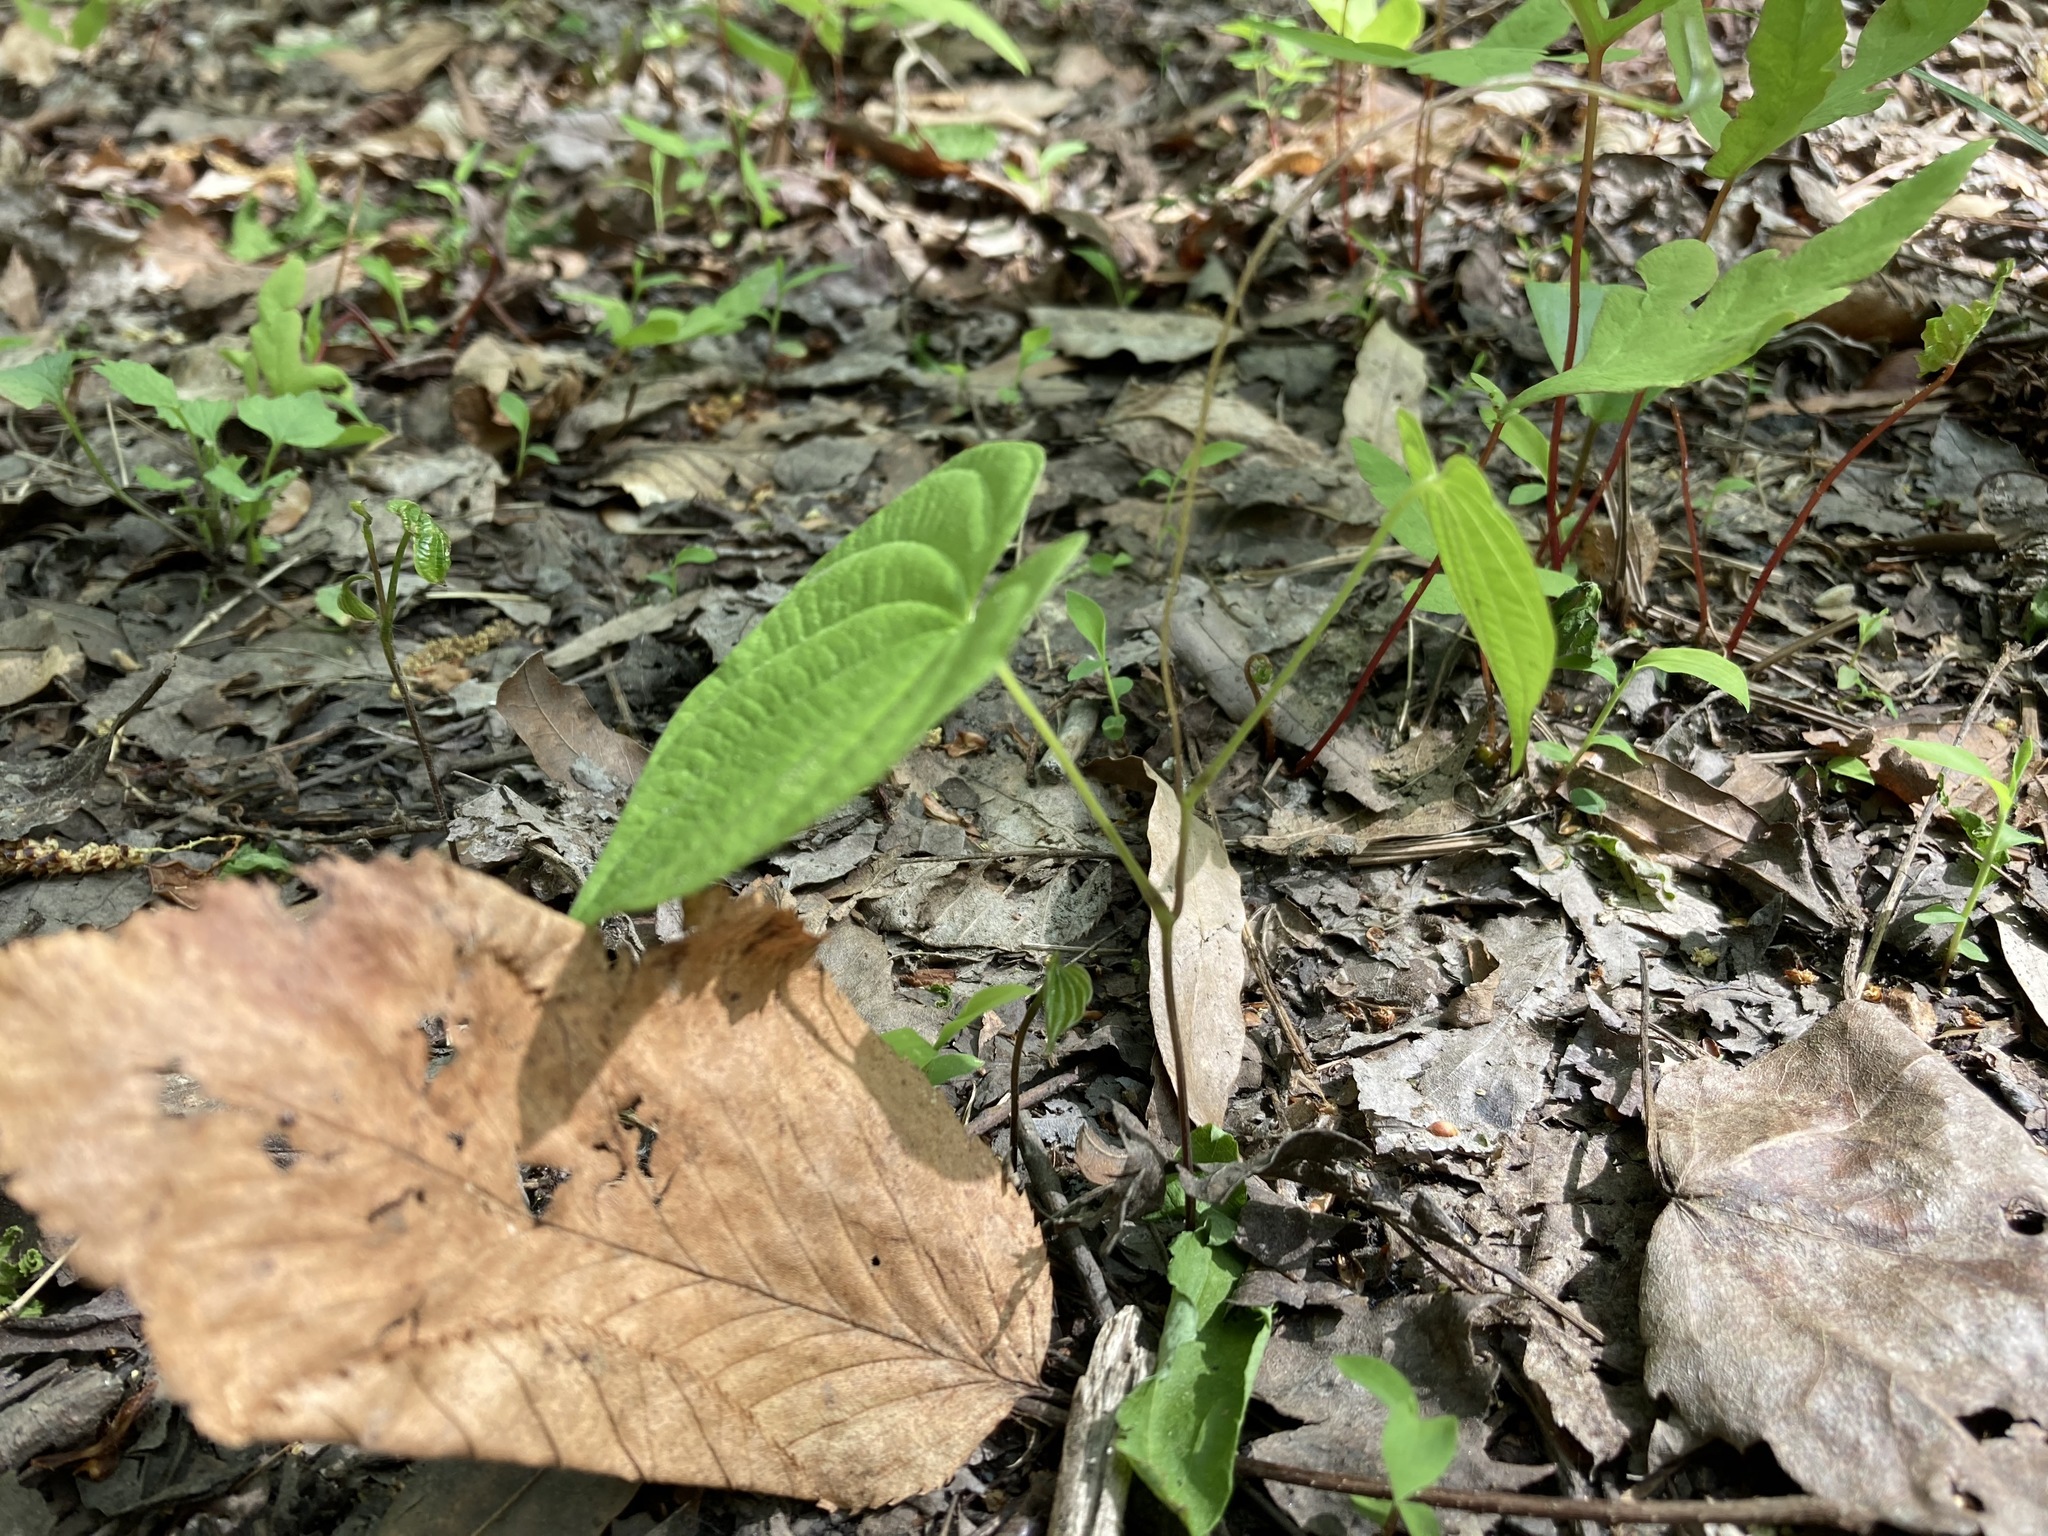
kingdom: Plantae
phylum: Tracheophyta
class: Liliopsida
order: Dioscoreales
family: Dioscoreaceae
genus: Dioscorea
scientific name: Dioscorea villosa
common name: Wild yam
